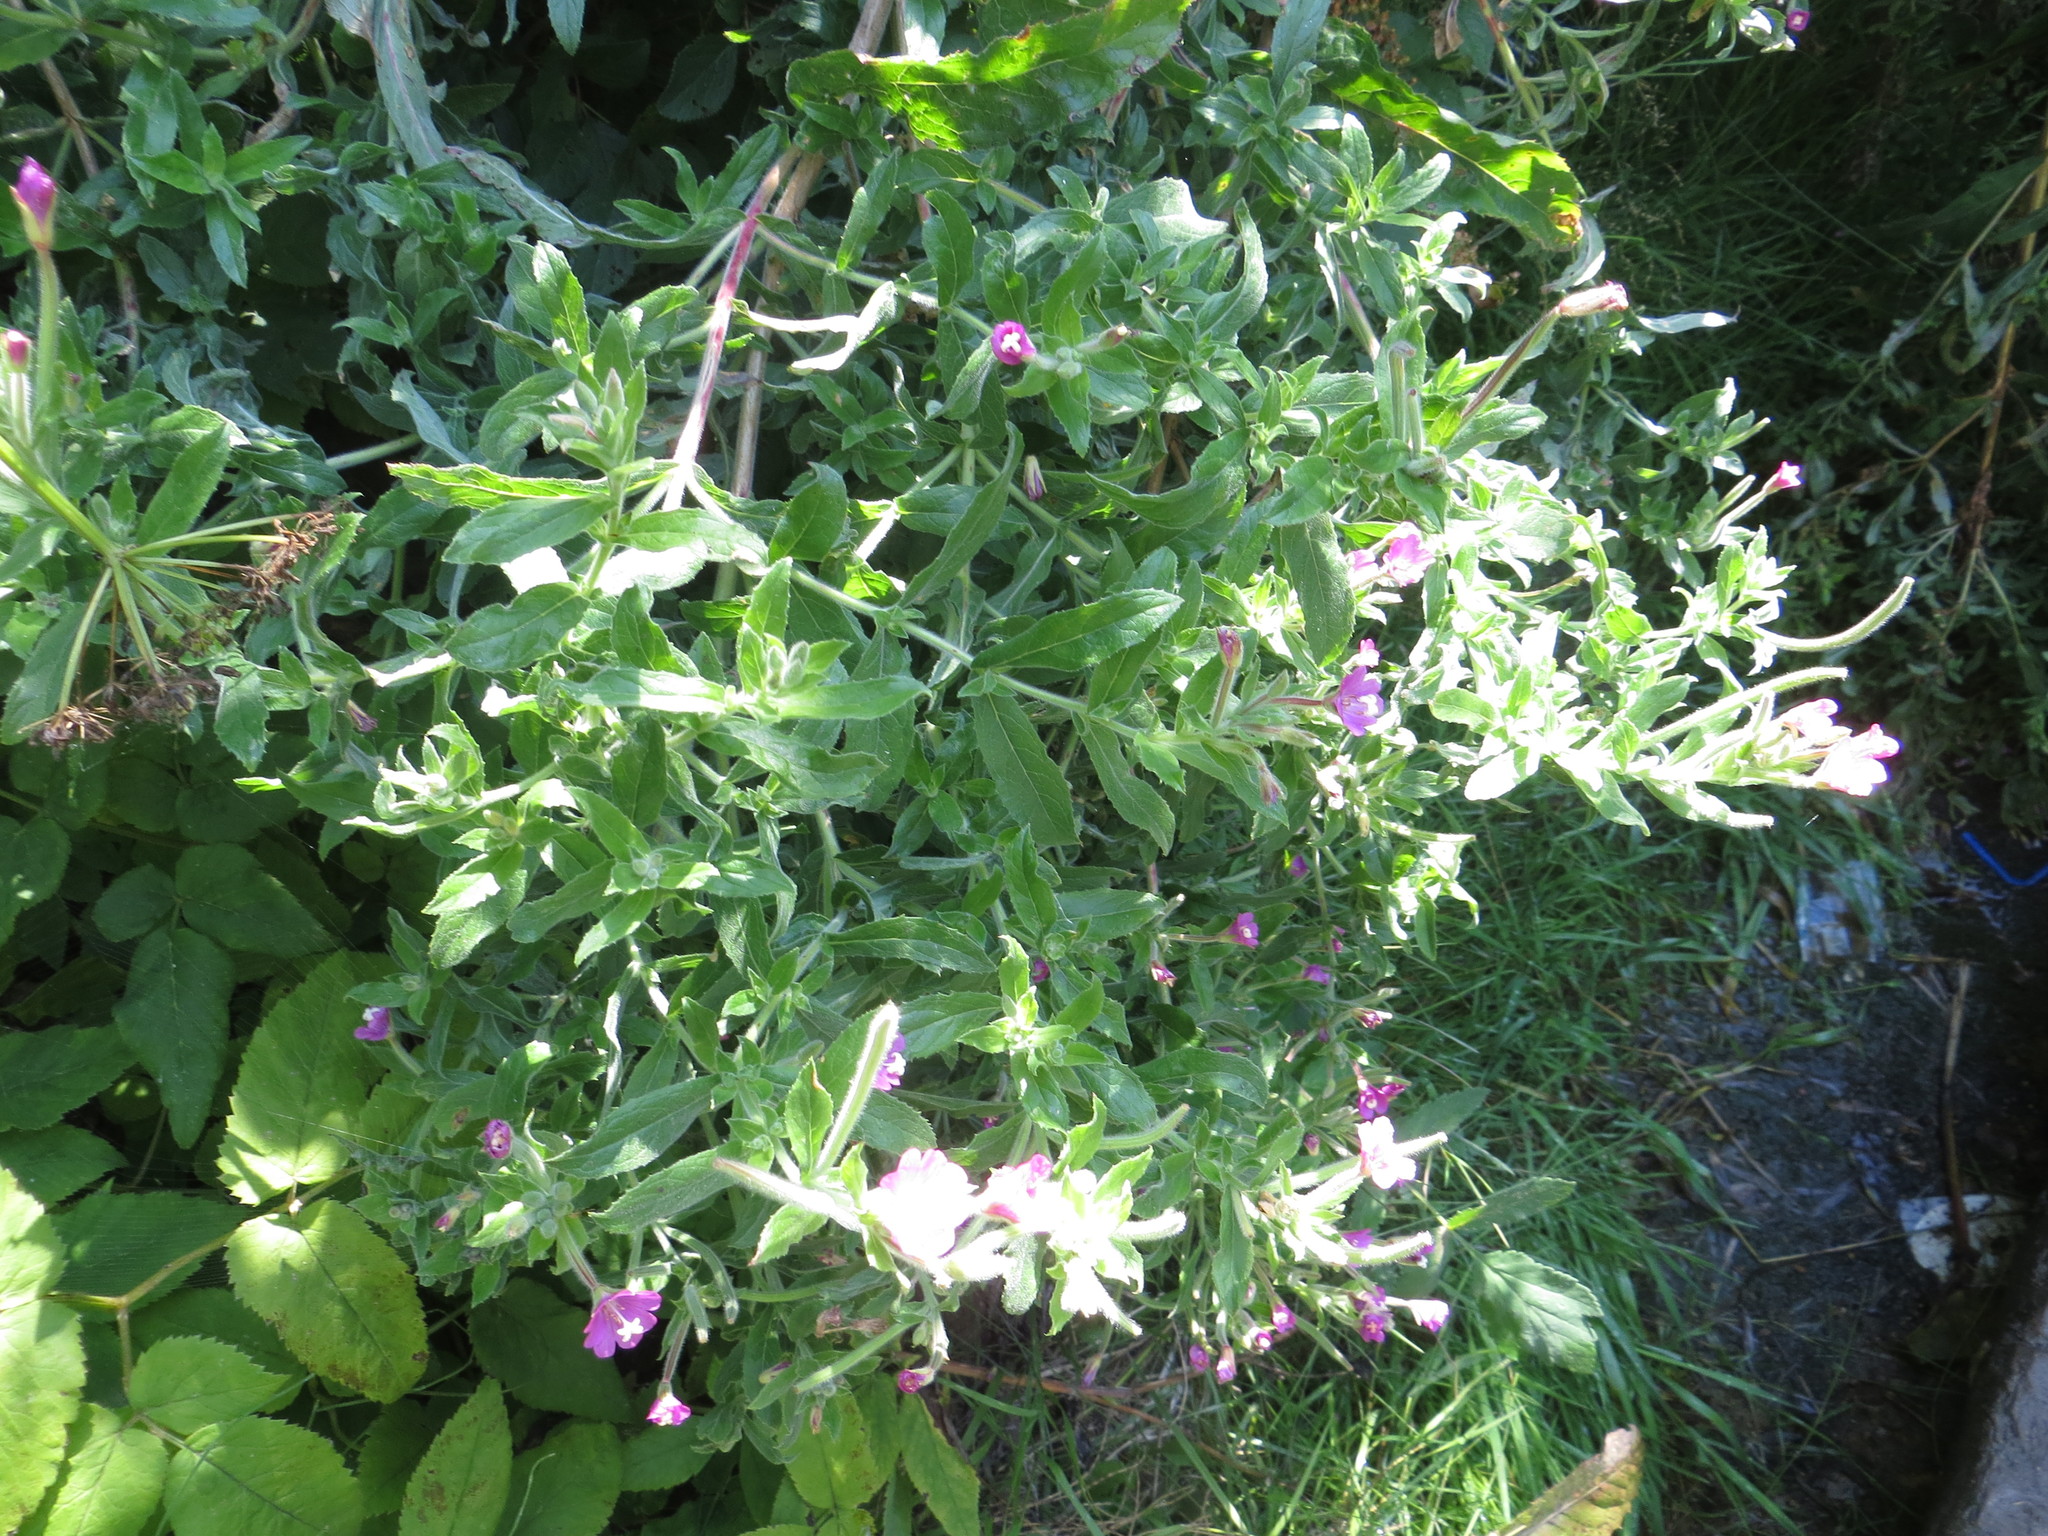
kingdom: Plantae
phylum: Tracheophyta
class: Magnoliopsida
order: Myrtales
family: Onagraceae
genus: Epilobium
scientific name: Epilobium hirsutum
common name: Great willowherb
